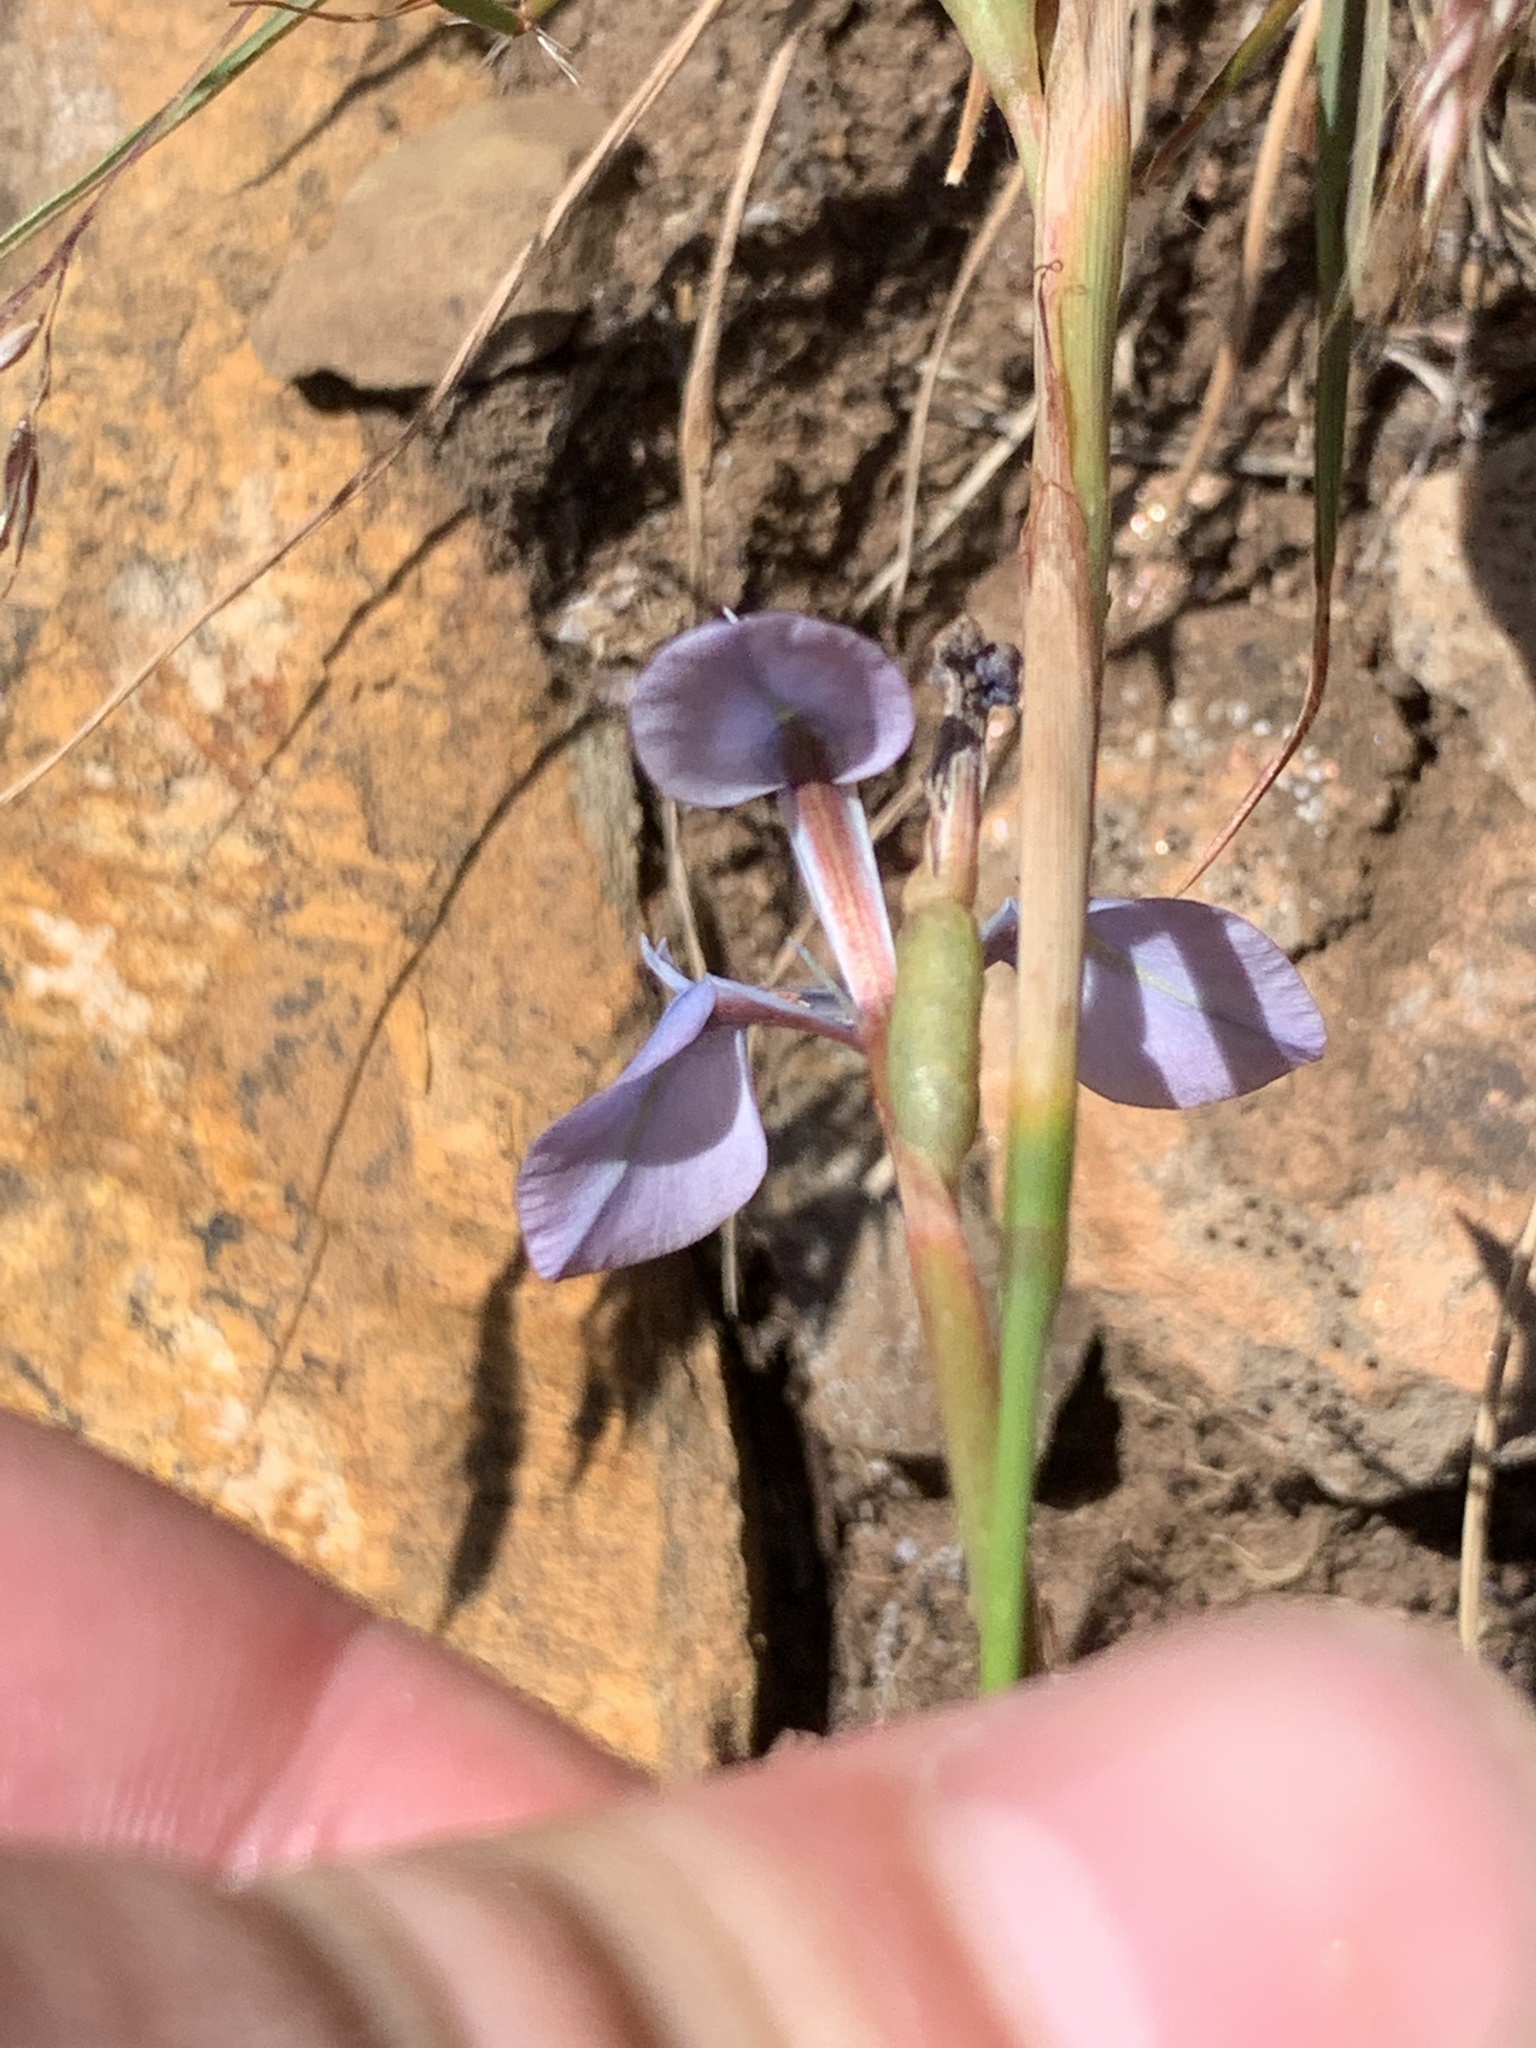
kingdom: Plantae
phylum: Tracheophyta
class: Liliopsida
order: Asparagales
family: Iridaceae
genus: Moraea
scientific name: Moraea tripetala
